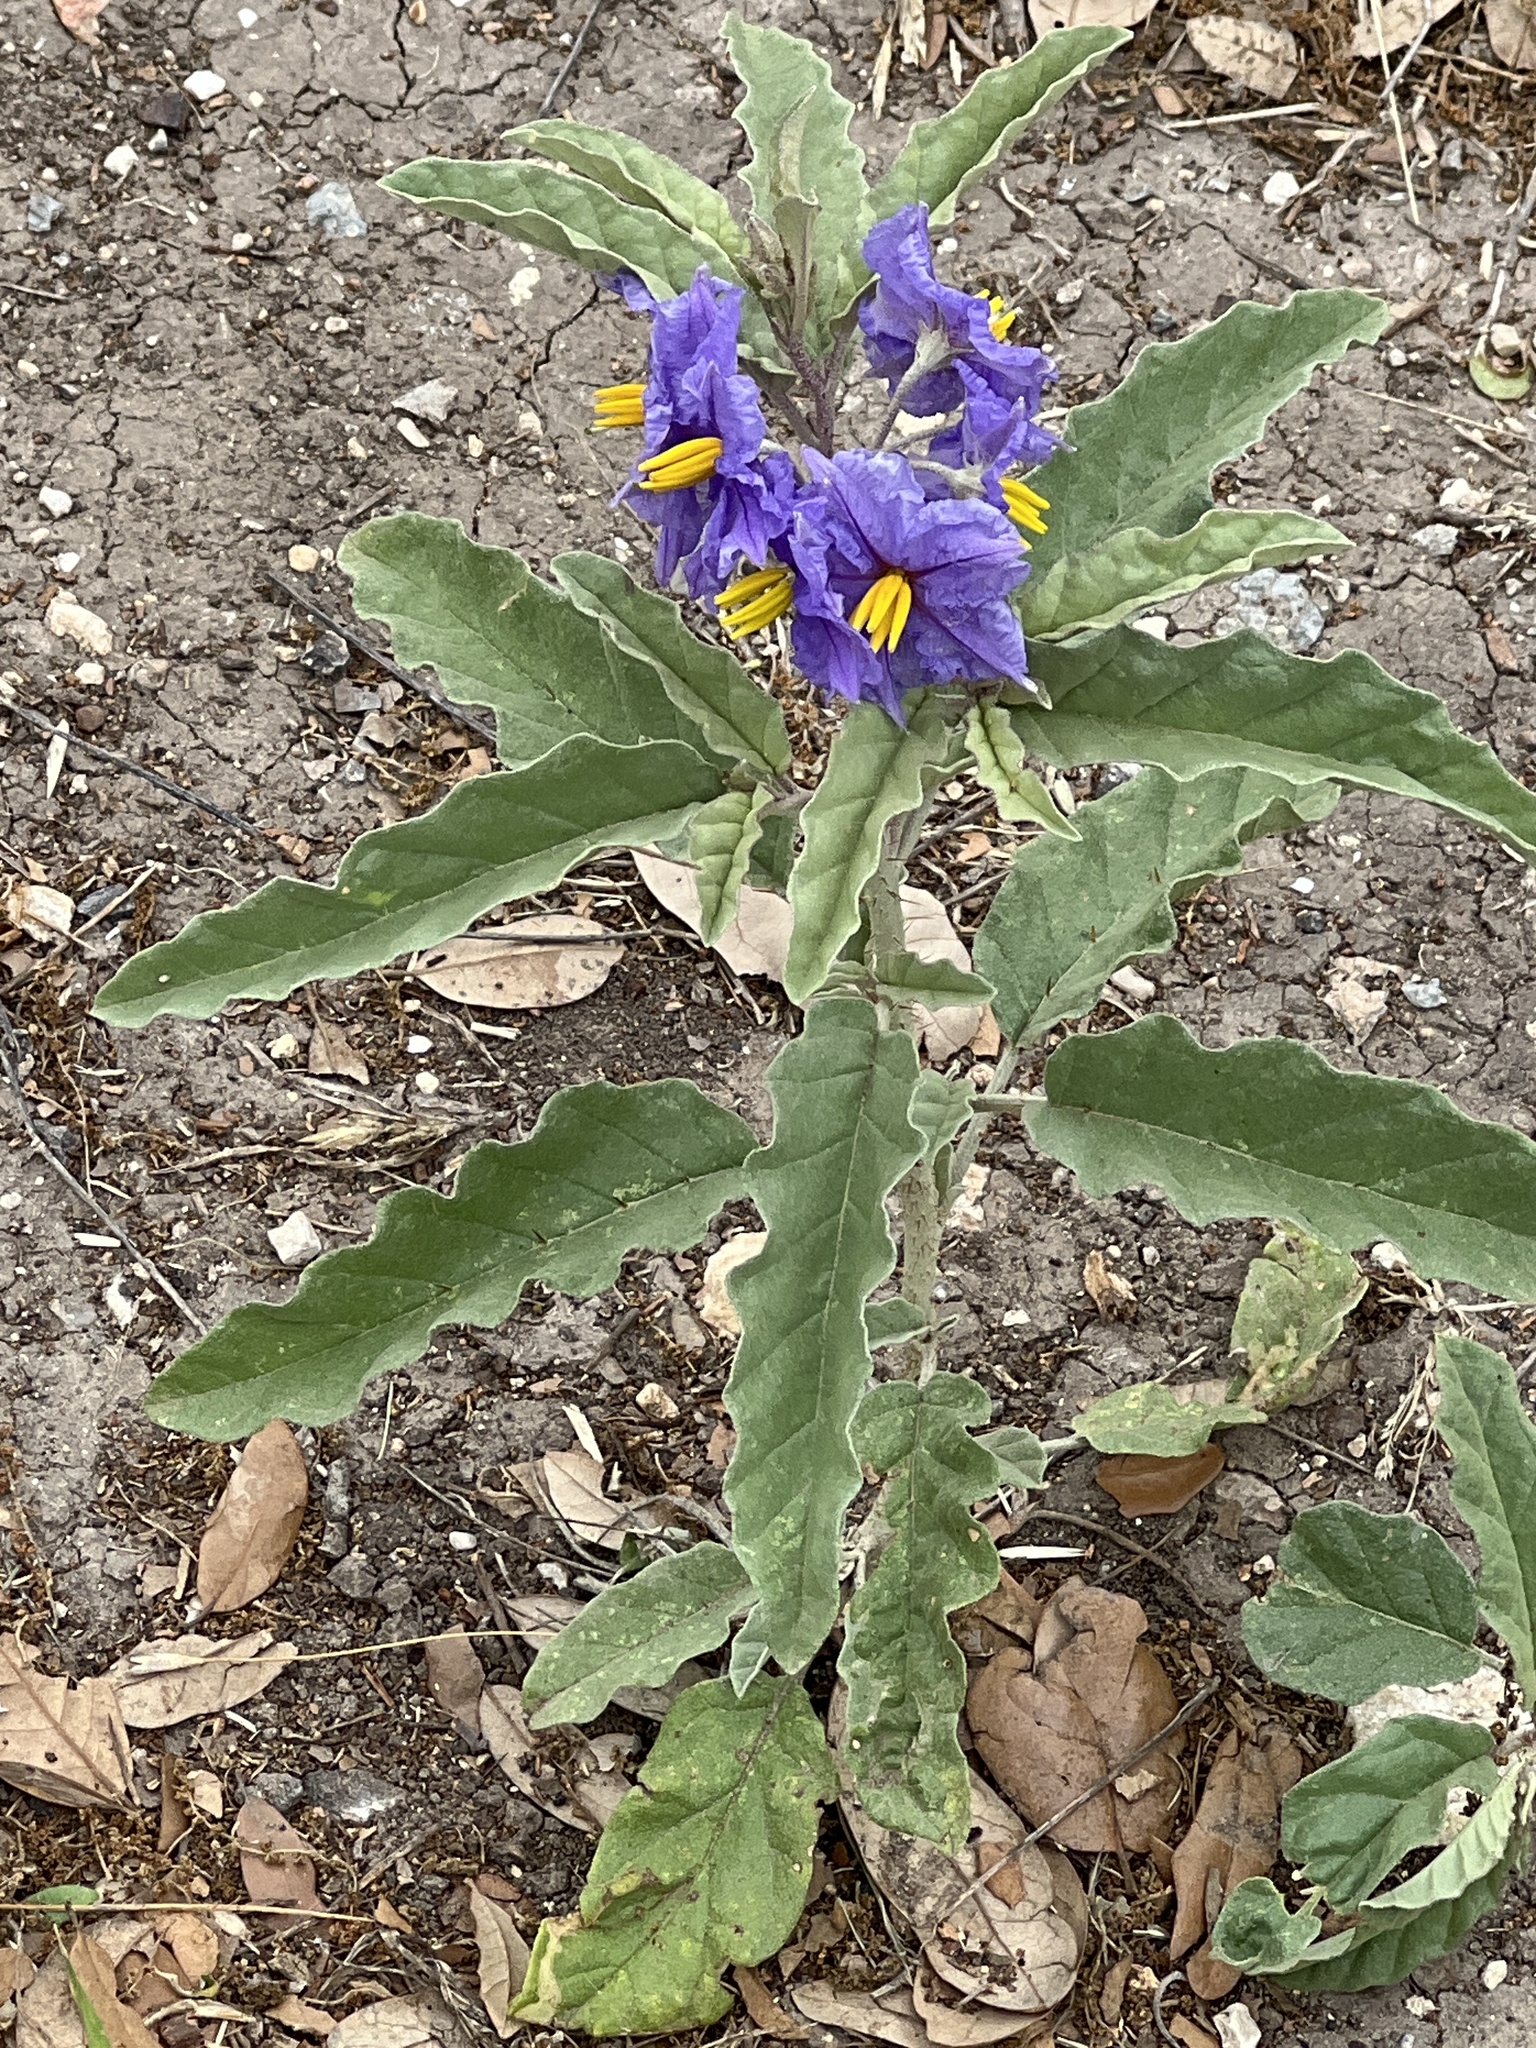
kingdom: Plantae
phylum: Tracheophyta
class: Magnoliopsida
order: Solanales
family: Solanaceae
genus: Solanum
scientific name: Solanum elaeagnifolium
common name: Silverleaf nightshade
